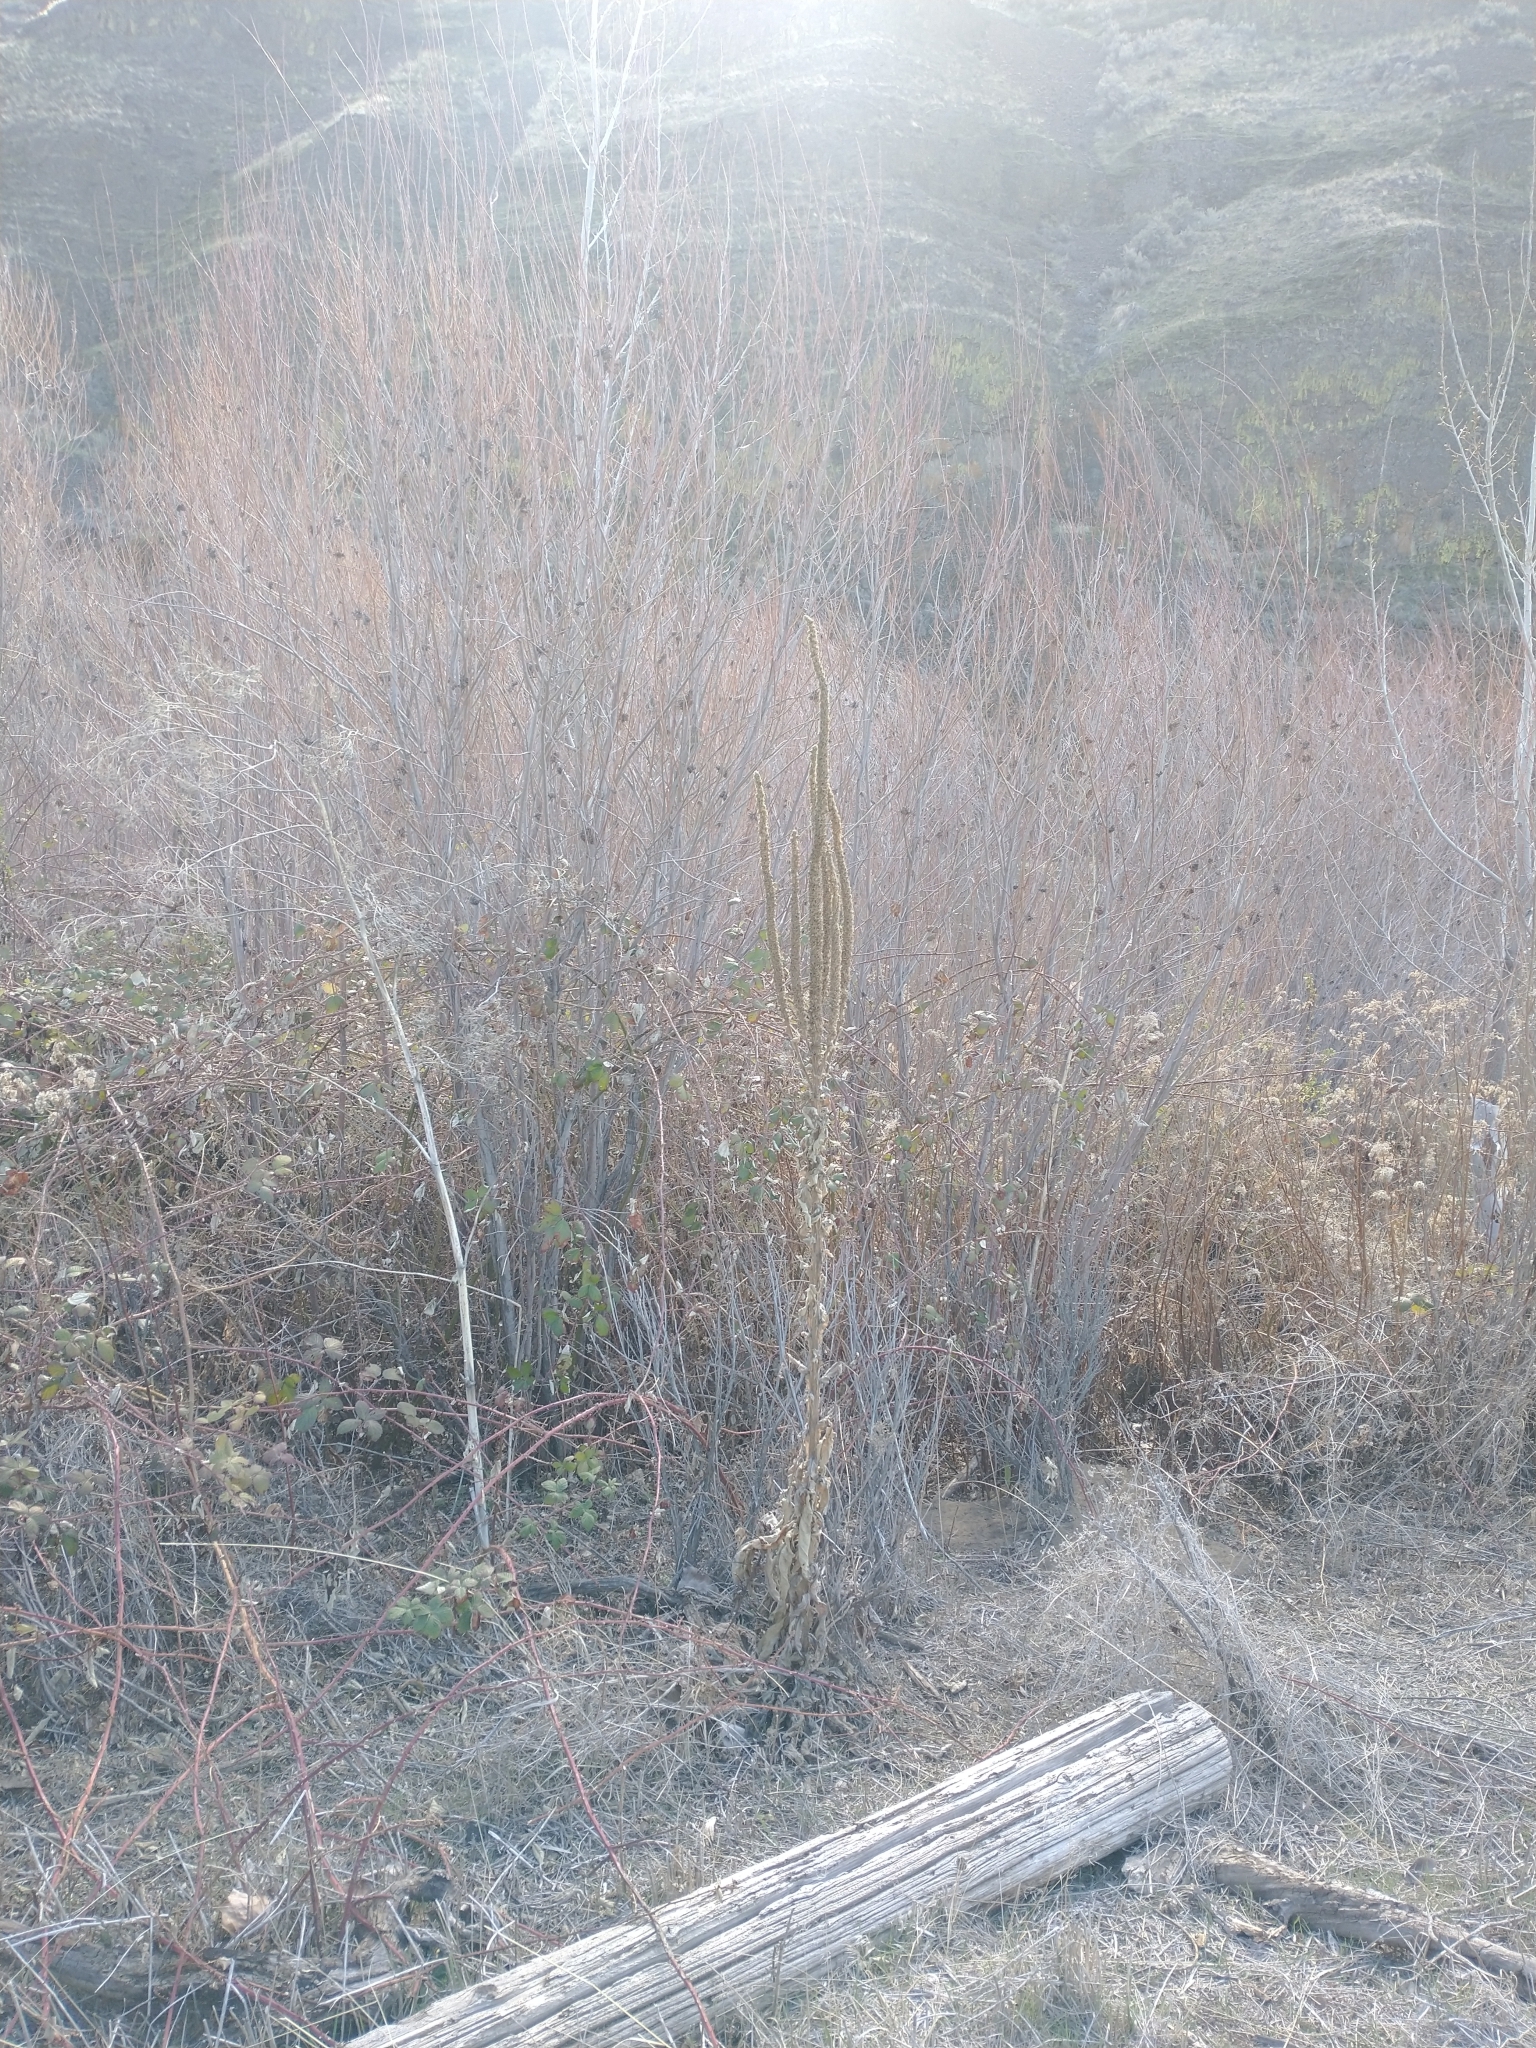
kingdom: Plantae
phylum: Tracheophyta
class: Magnoliopsida
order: Lamiales
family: Scrophulariaceae
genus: Verbascum
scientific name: Verbascum thapsus
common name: Common mullein
